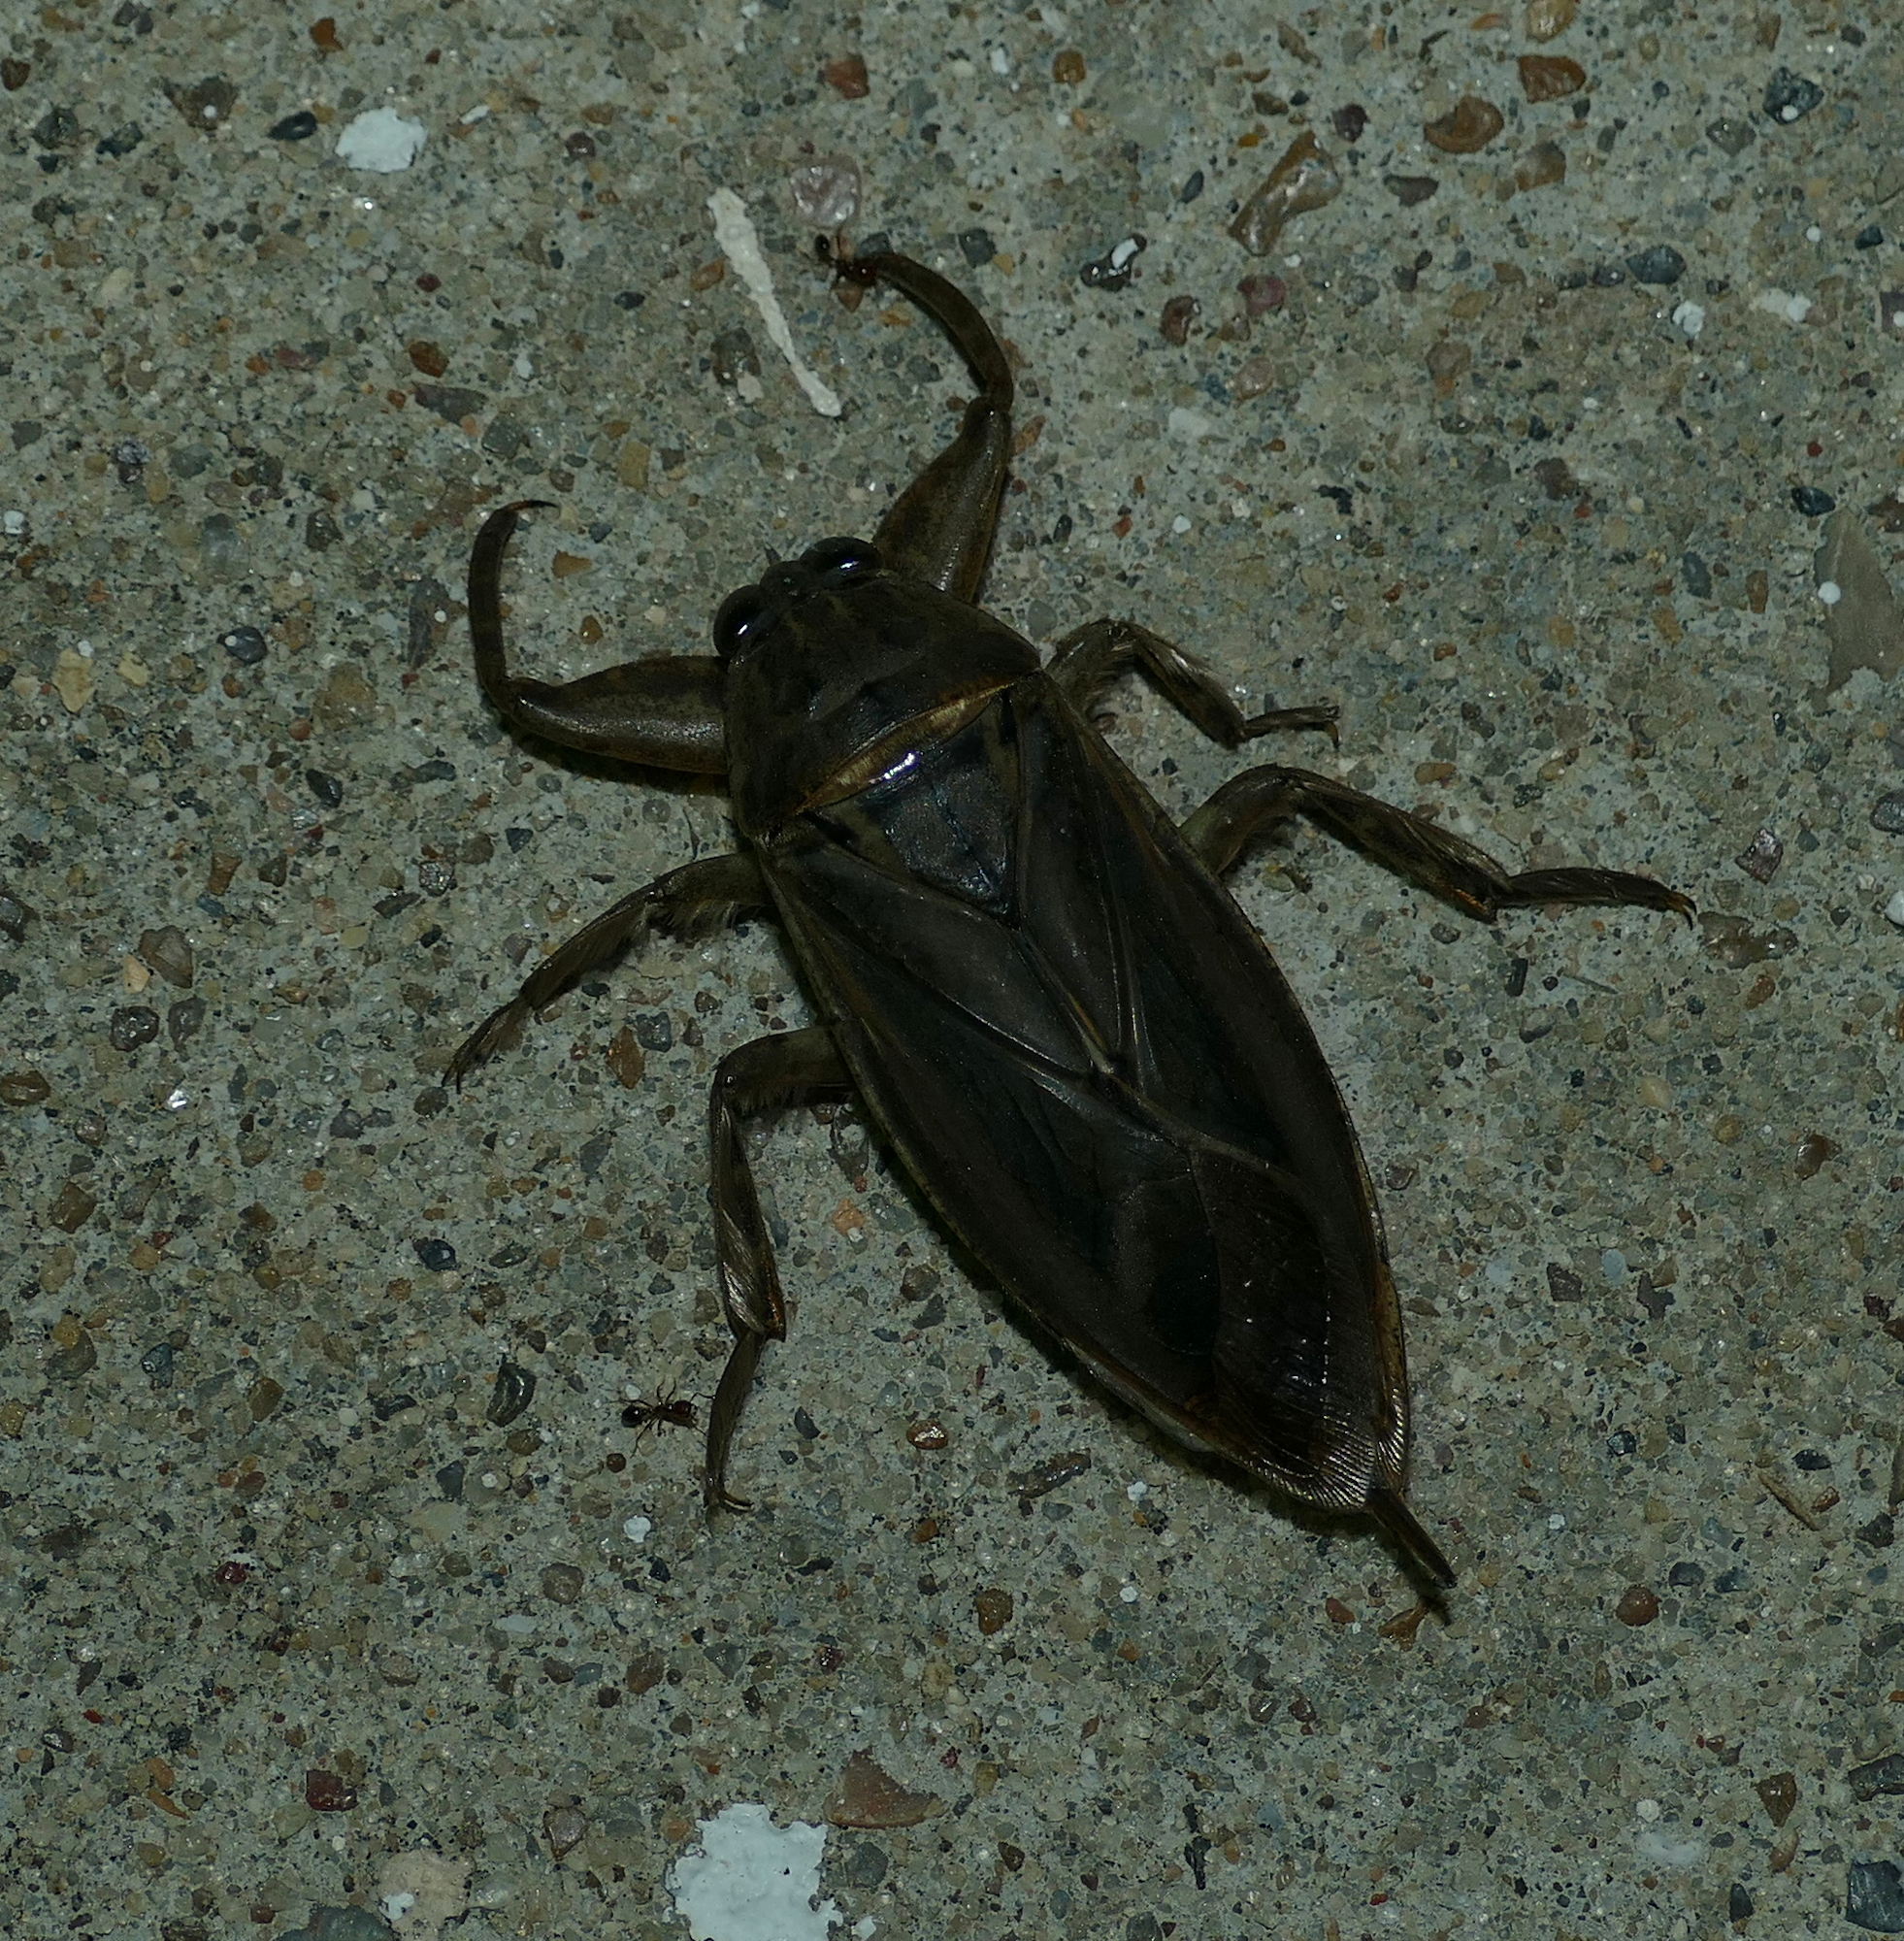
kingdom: Animalia
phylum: Arthropoda
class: Insecta
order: Hemiptera
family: Belostomatidae
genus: Lethocerus
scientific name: Lethocerus uhleri
